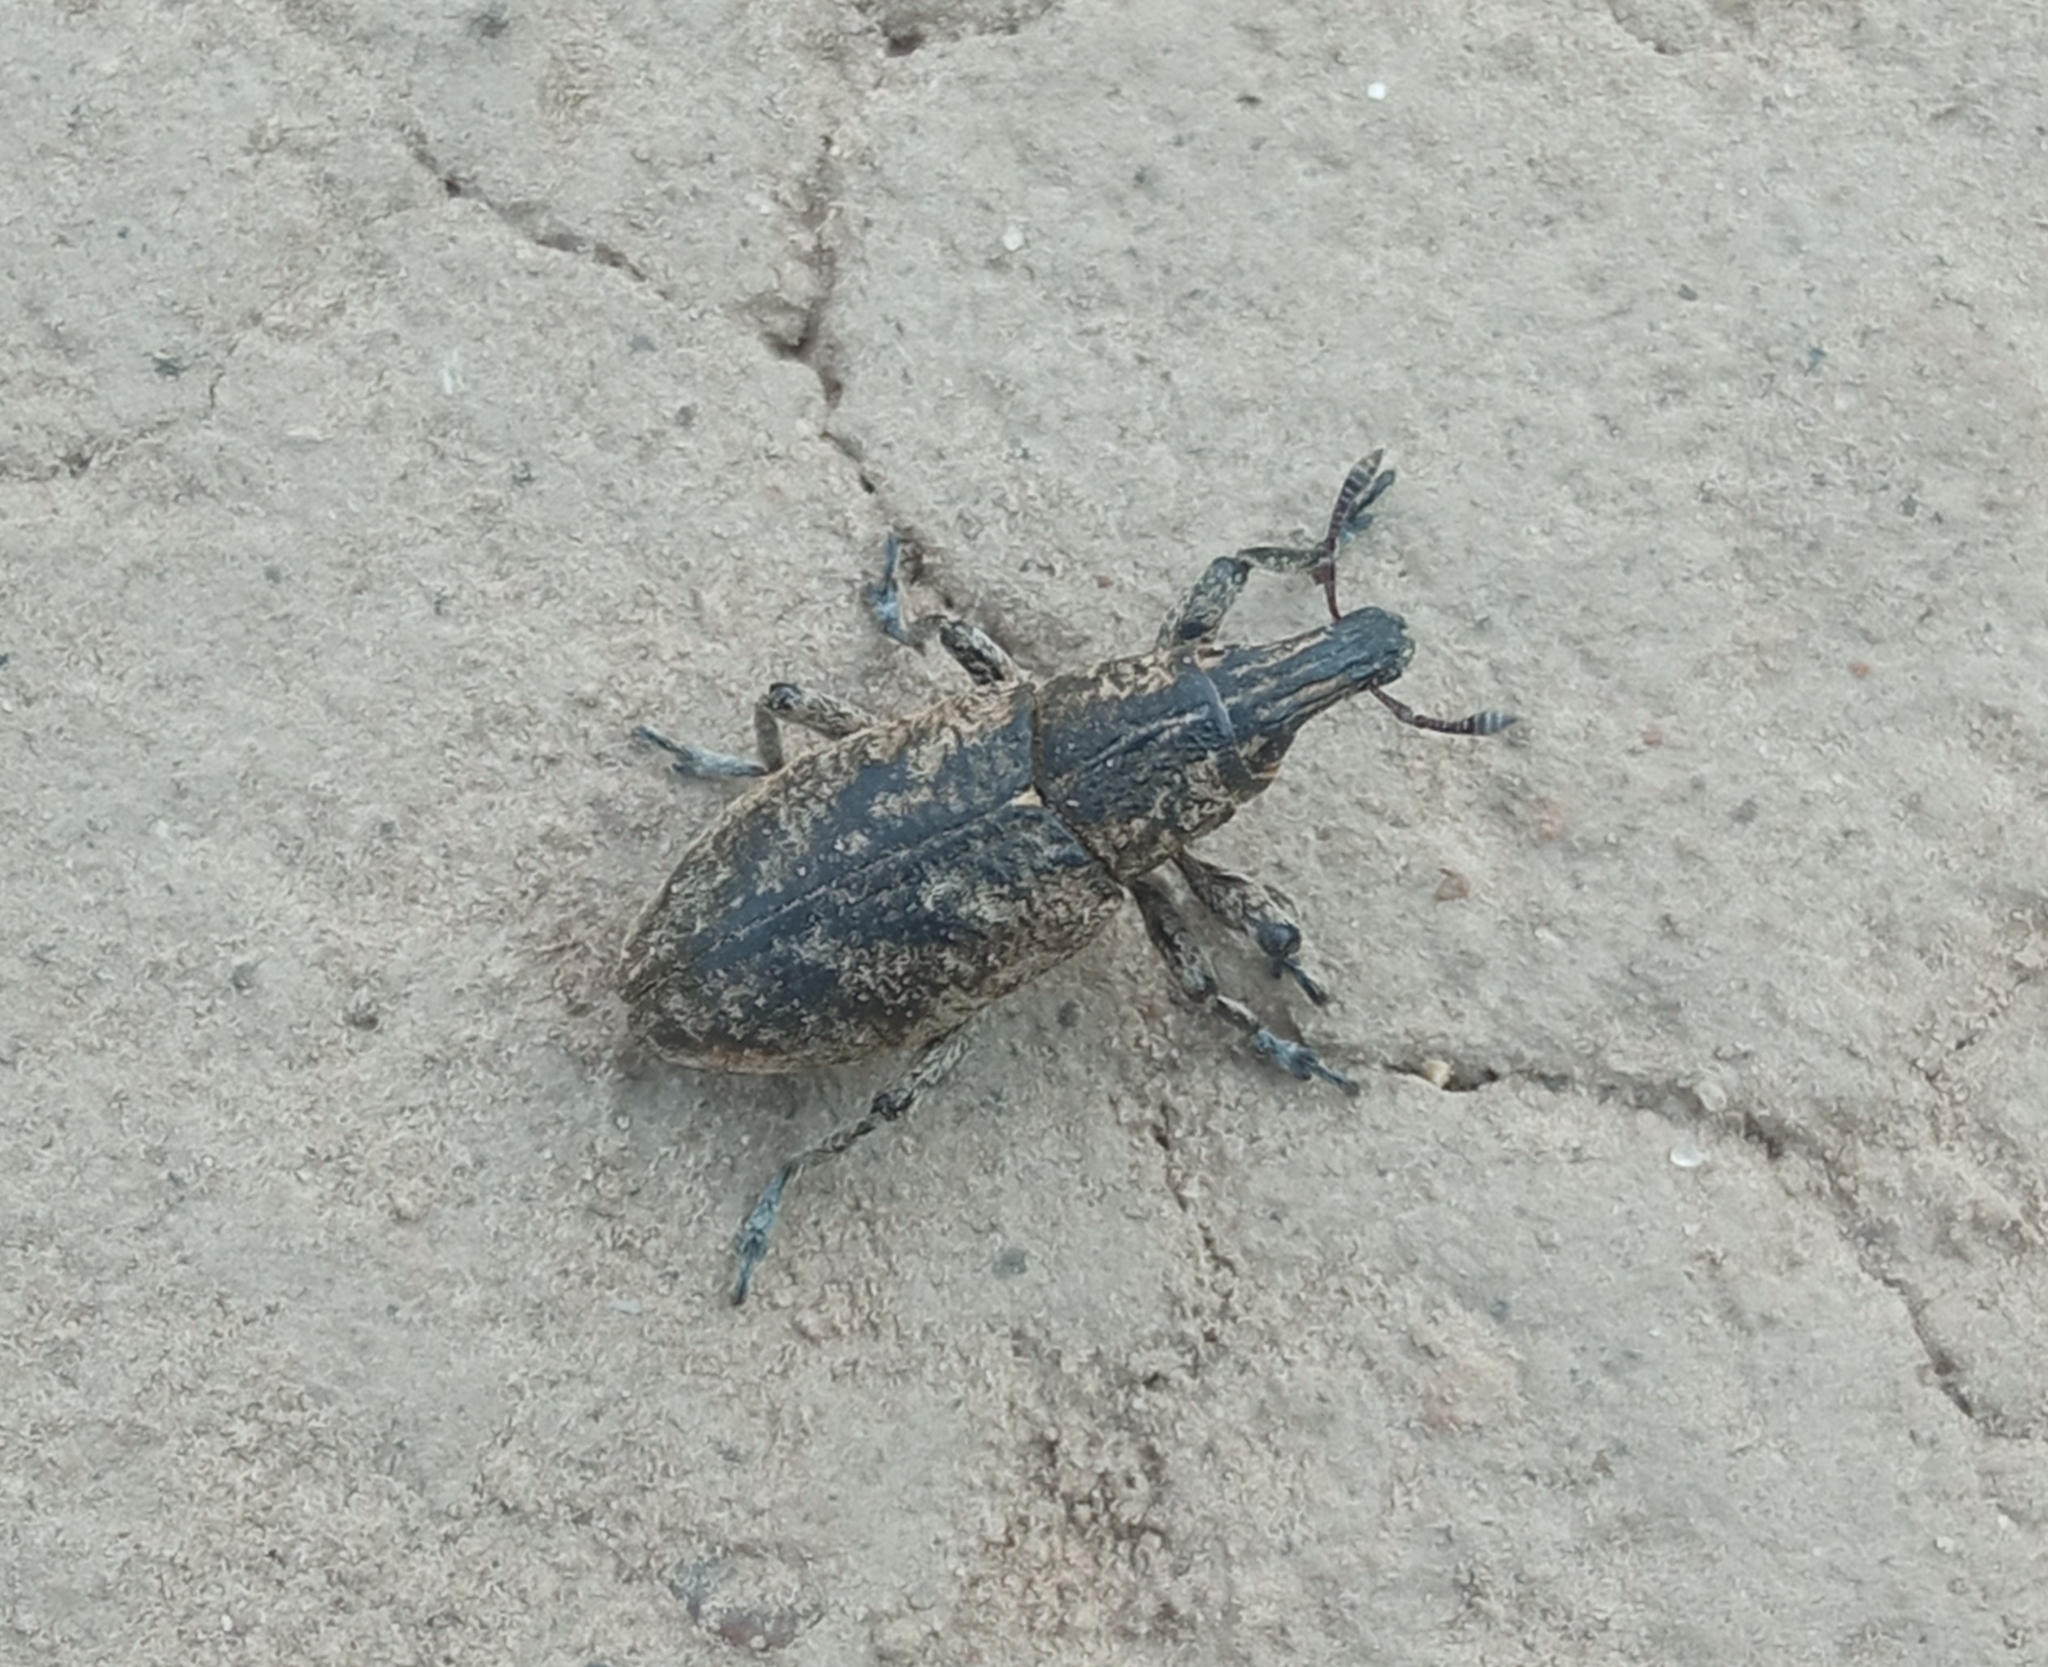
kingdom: Animalia
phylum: Arthropoda
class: Insecta
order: Coleoptera
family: Curculionidae
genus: Cleonis
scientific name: Cleonis pigra
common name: Large thistle weevil
